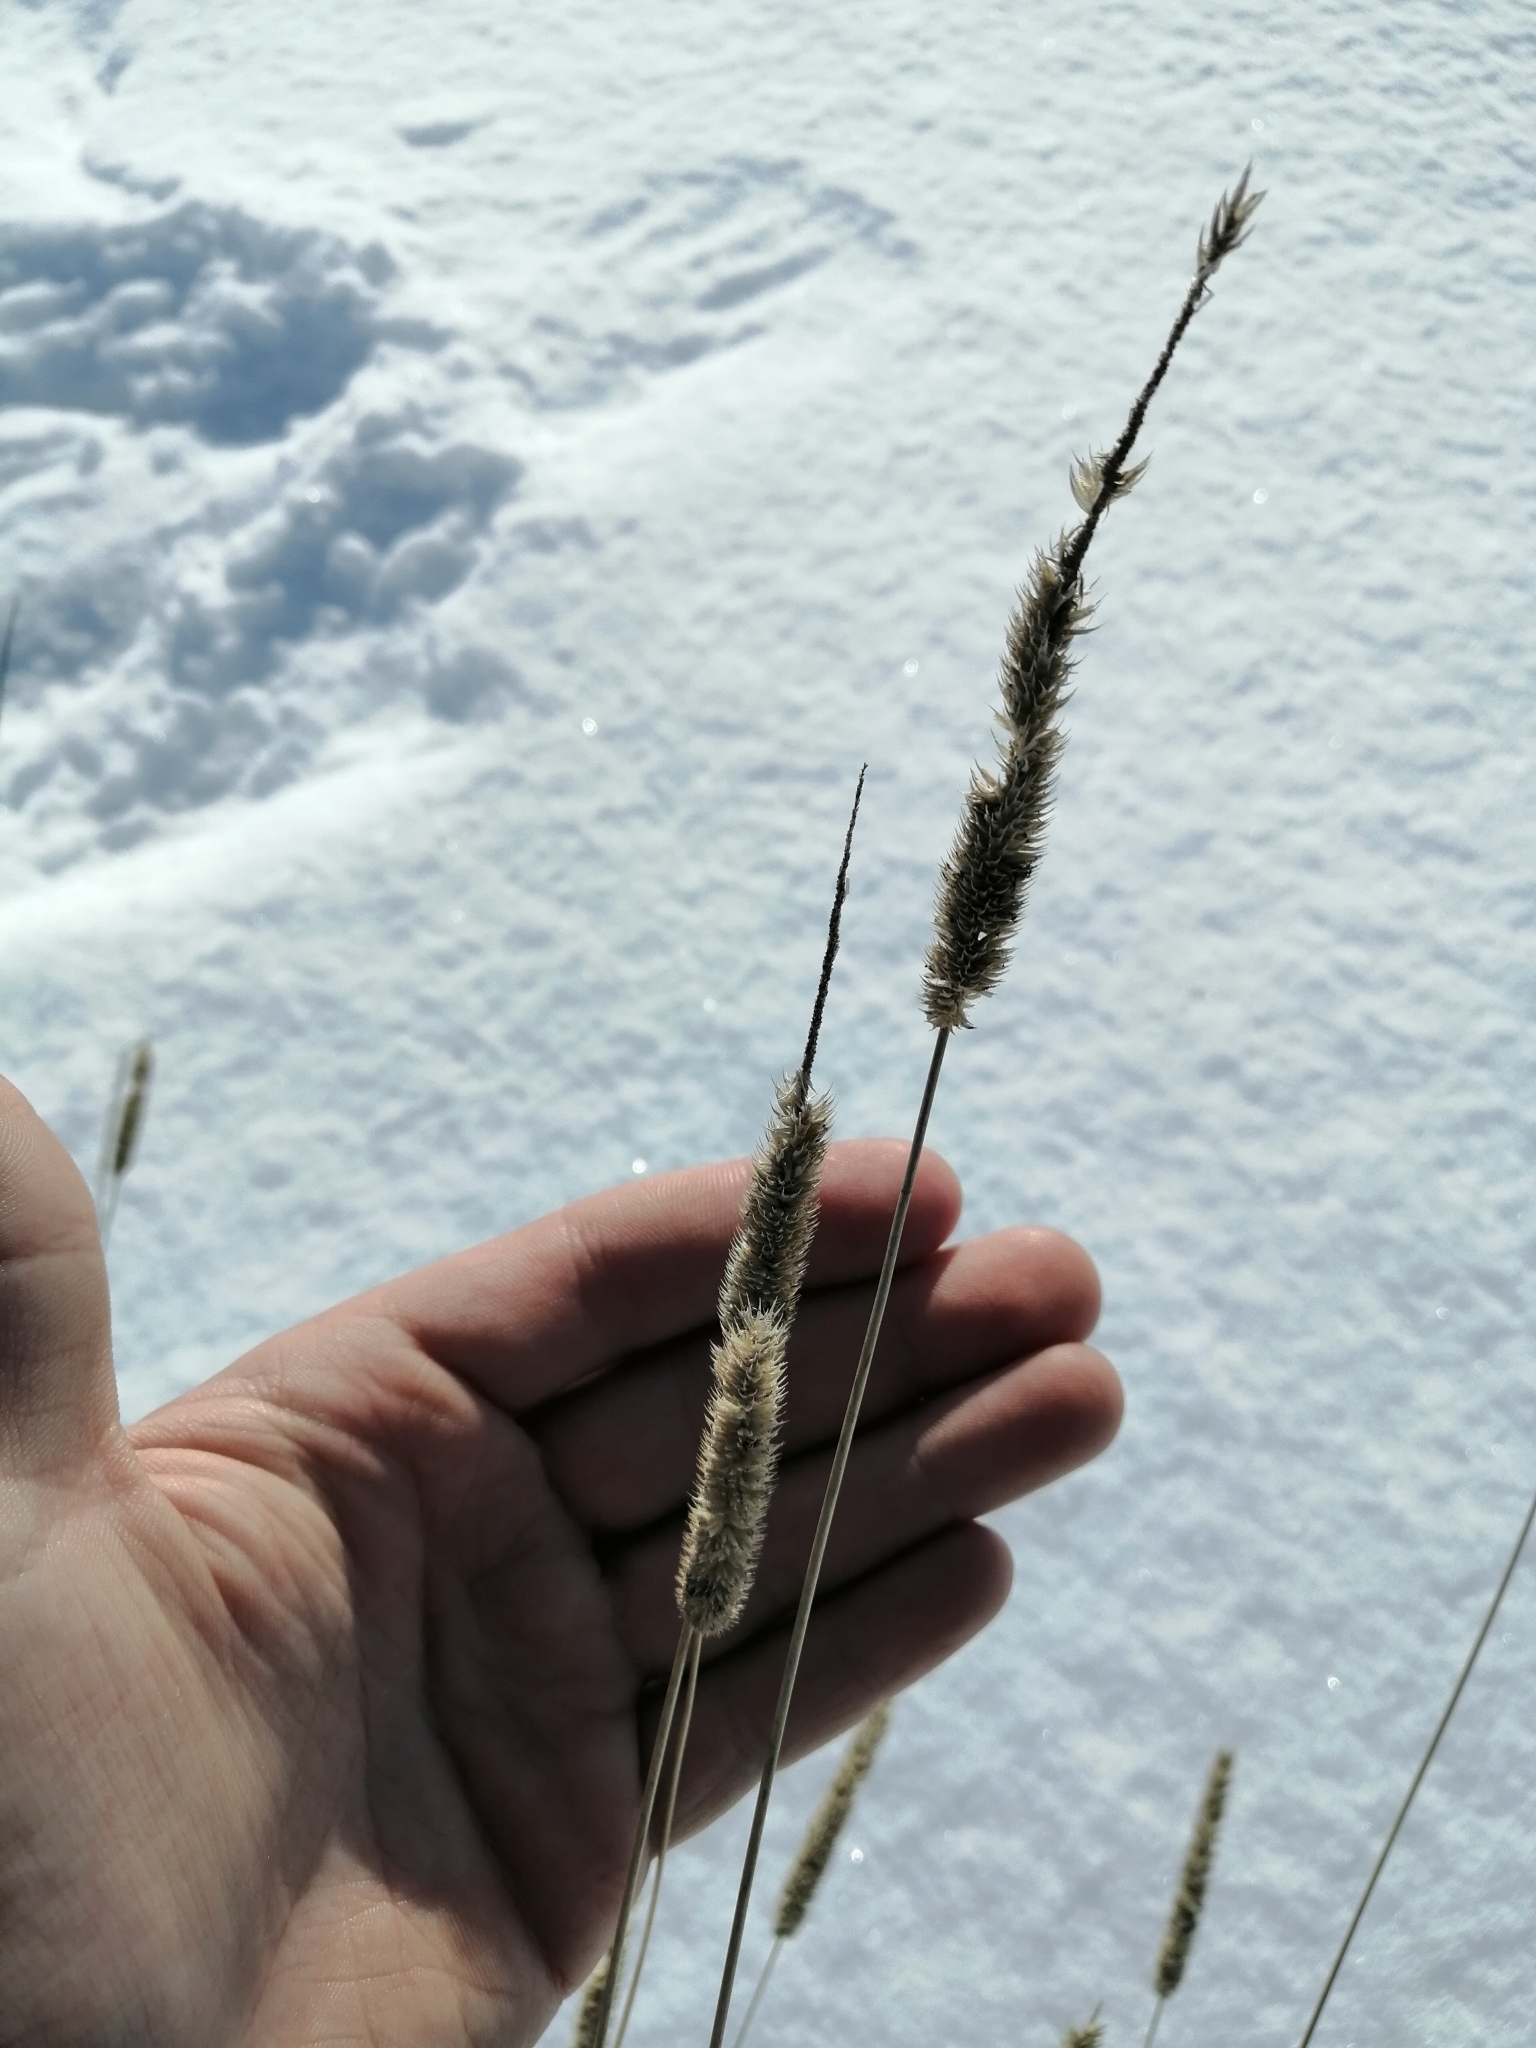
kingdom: Plantae
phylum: Tracheophyta
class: Liliopsida
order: Poales
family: Poaceae
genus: Phleum
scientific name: Phleum pratense
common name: Timothy grass
